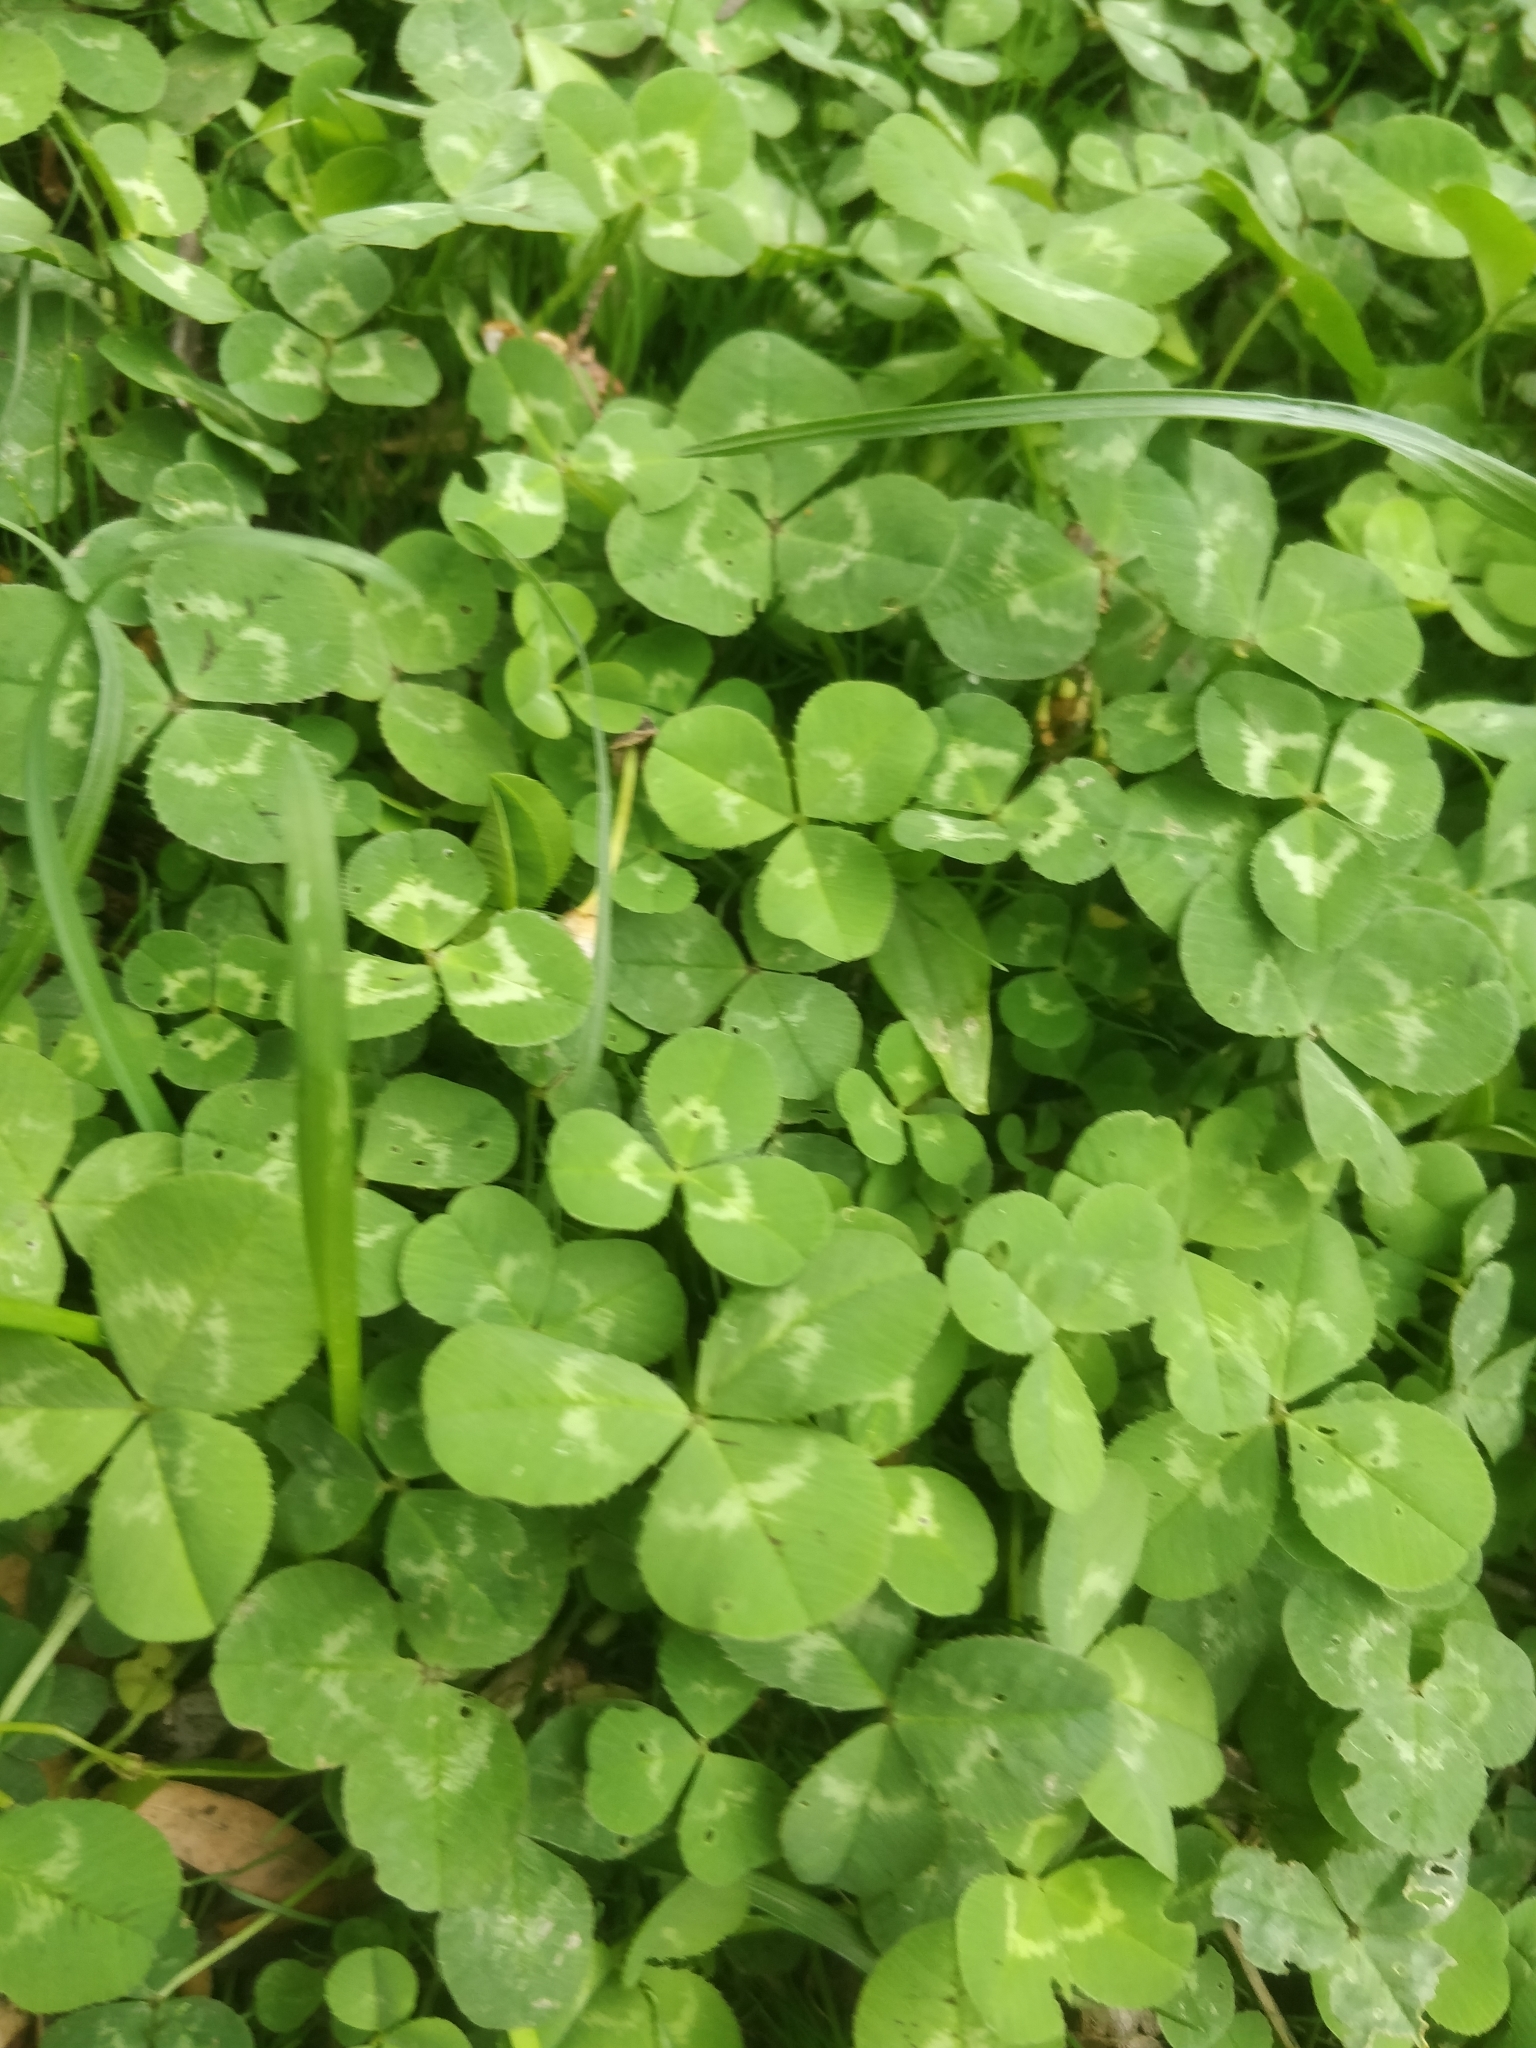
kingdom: Plantae
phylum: Tracheophyta
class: Magnoliopsida
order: Fabales
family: Fabaceae
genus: Trifolium
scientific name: Trifolium repens
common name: White clover
